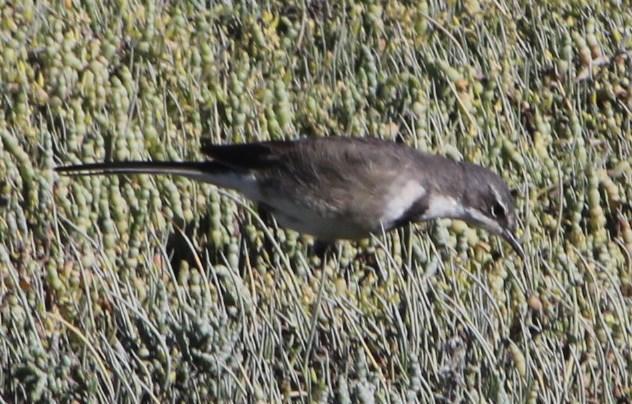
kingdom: Animalia
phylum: Chordata
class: Aves
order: Passeriformes
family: Motacillidae
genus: Motacilla
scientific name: Motacilla capensis
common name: Cape wagtail
